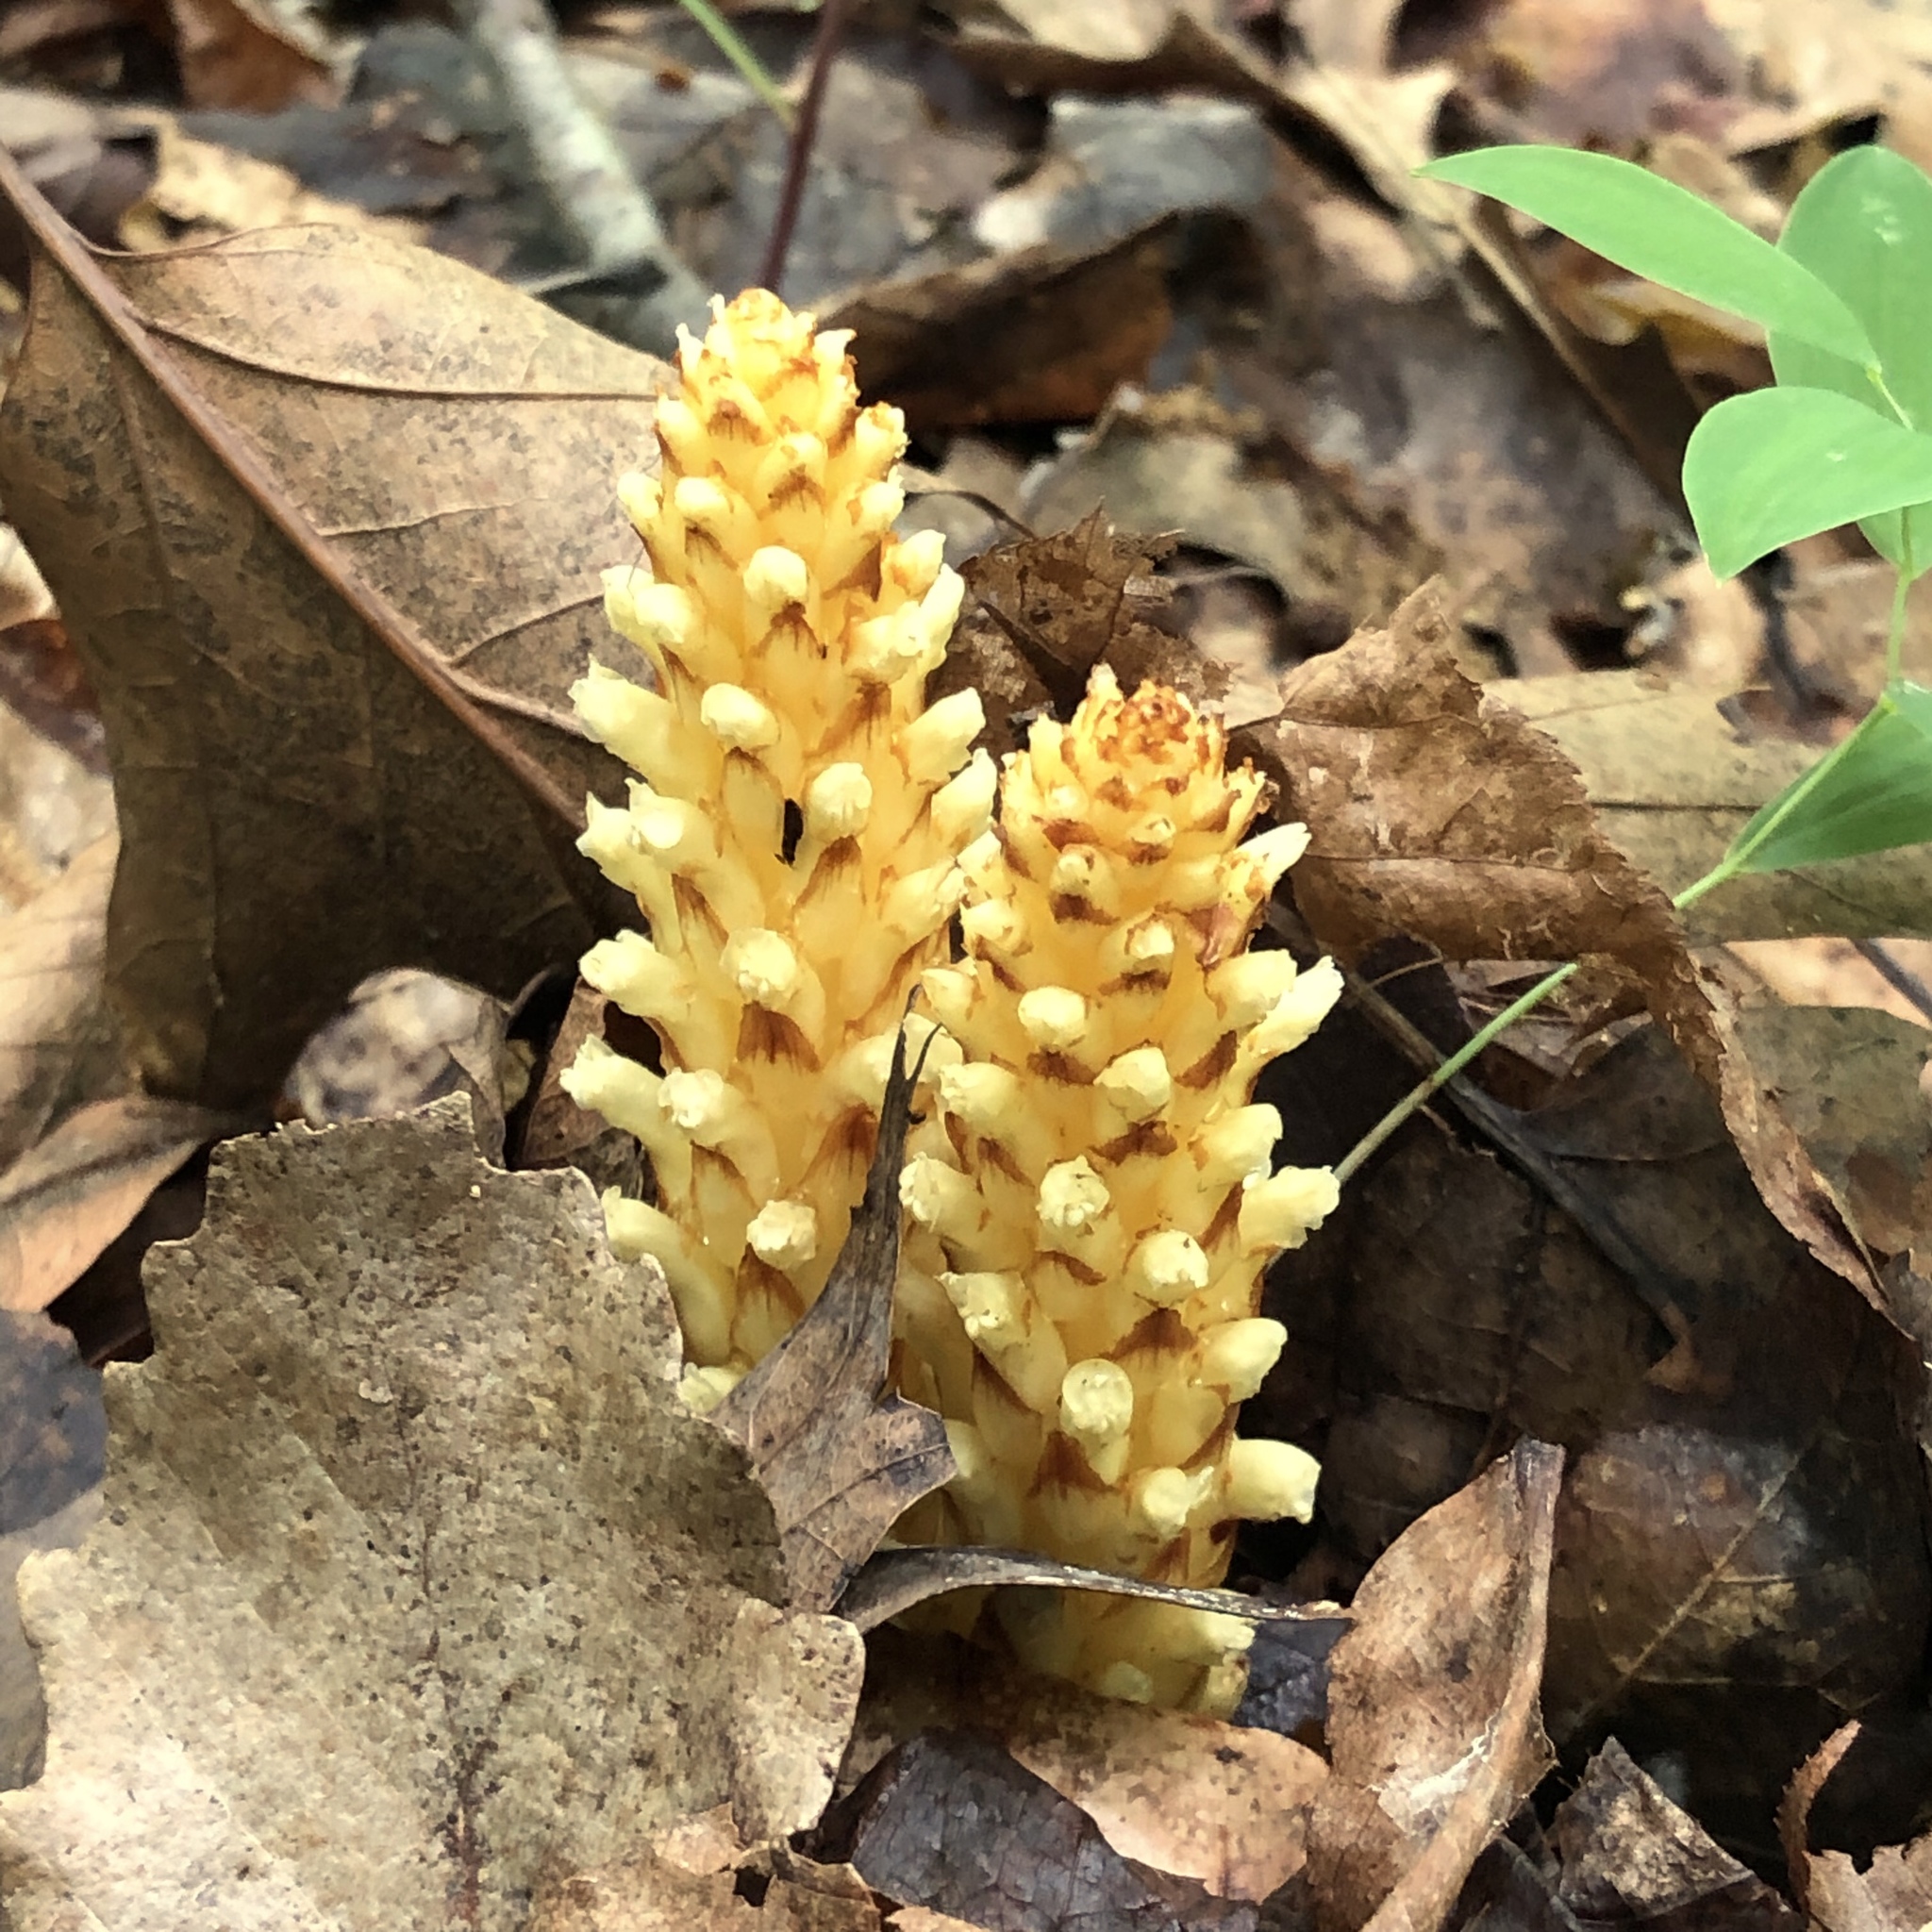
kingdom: Plantae
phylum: Tracheophyta
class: Magnoliopsida
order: Lamiales
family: Orobanchaceae
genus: Conopholis
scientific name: Conopholis americana
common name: American cancer-root
